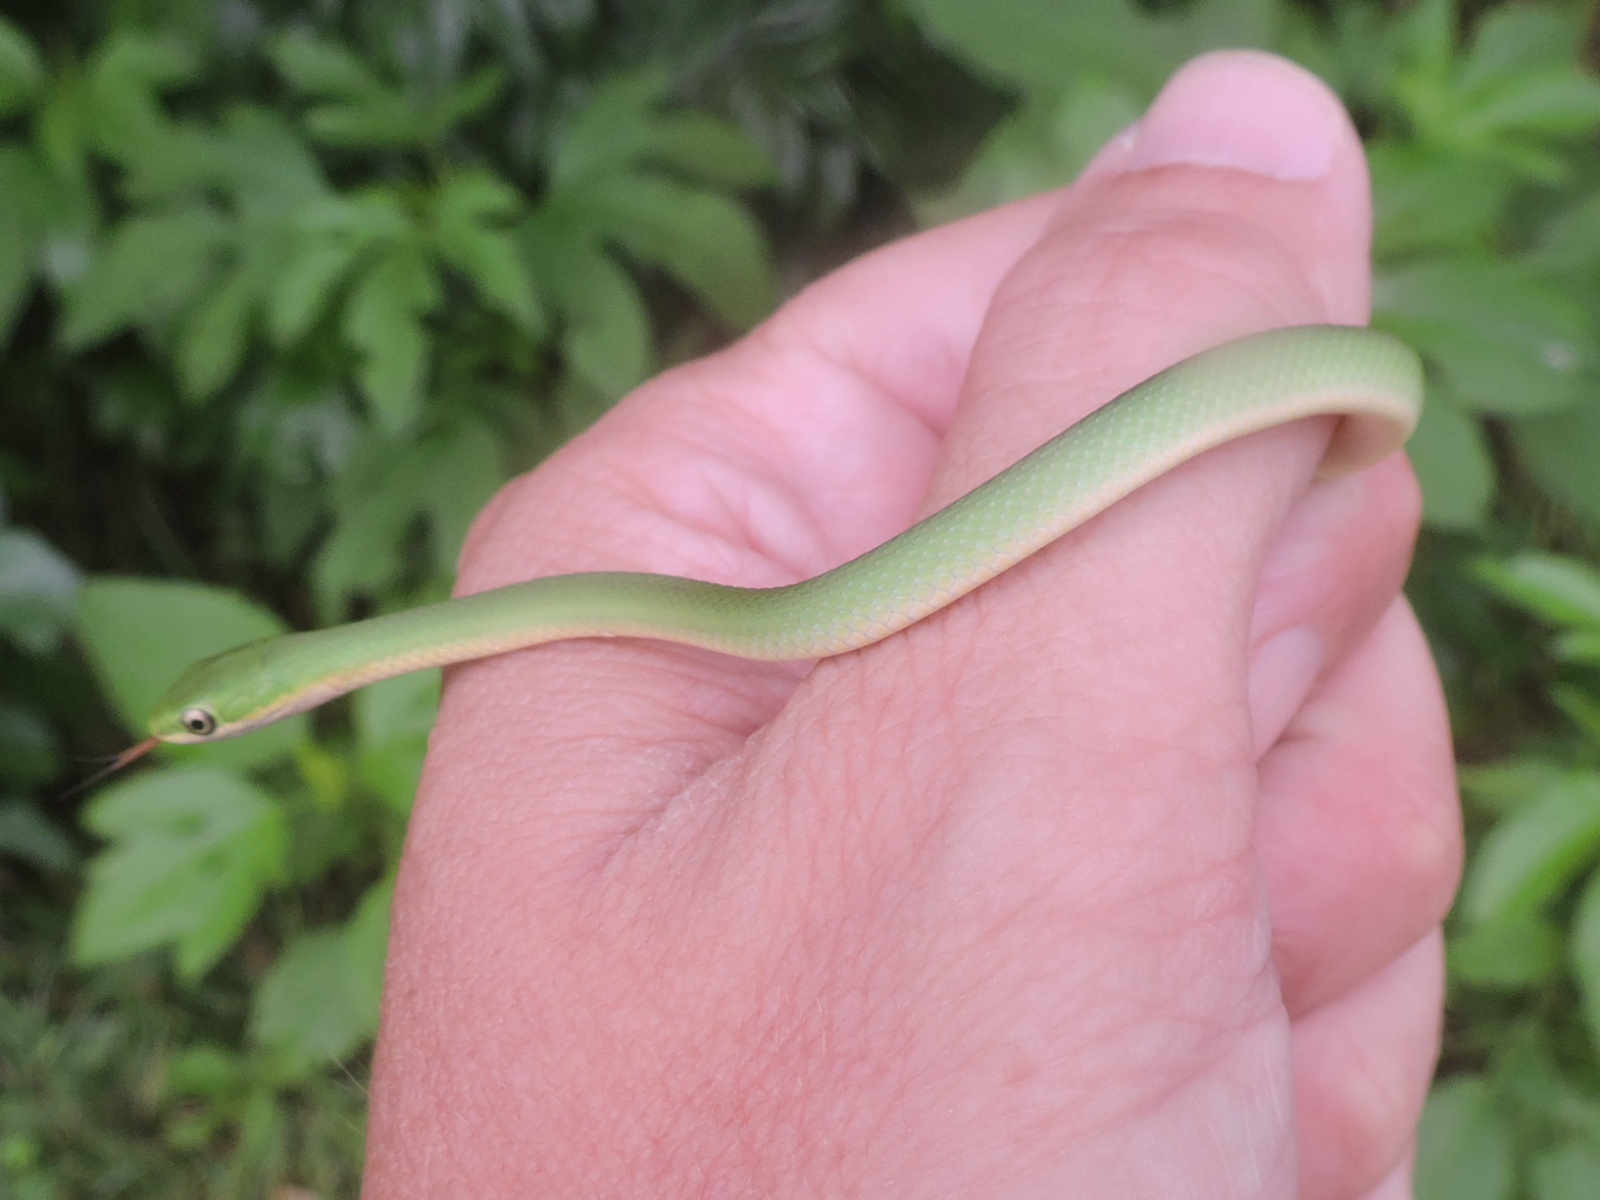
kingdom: Animalia
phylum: Chordata
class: Squamata
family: Colubridae
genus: Opheodrys
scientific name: Opheodrys aestivus
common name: Rough greensnake
